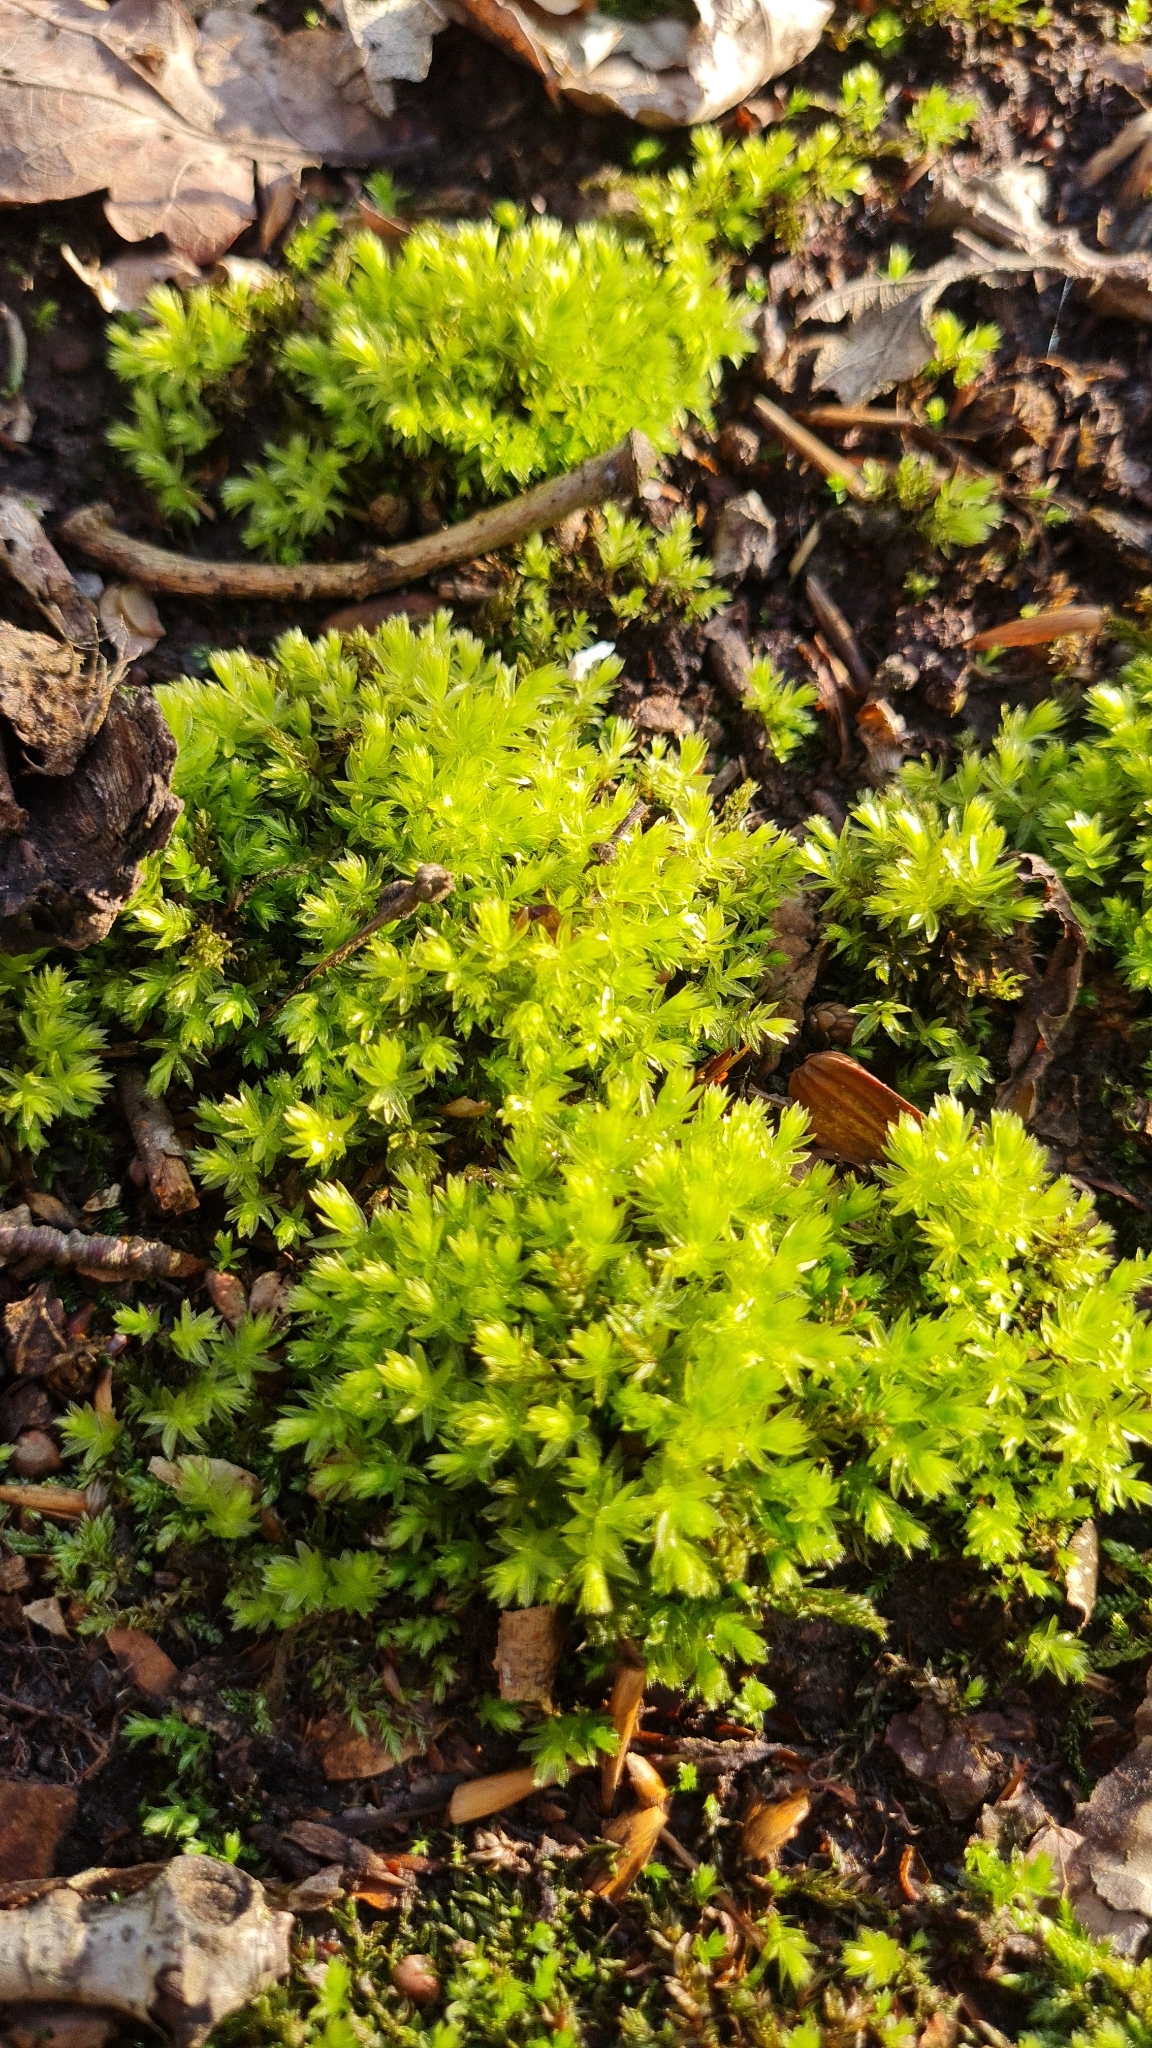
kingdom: Plantae
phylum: Bryophyta
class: Bryopsida
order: Bryales
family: Mniaceae
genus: Mnium
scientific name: Mnium hornum
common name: Swan's-neck leafy moss
